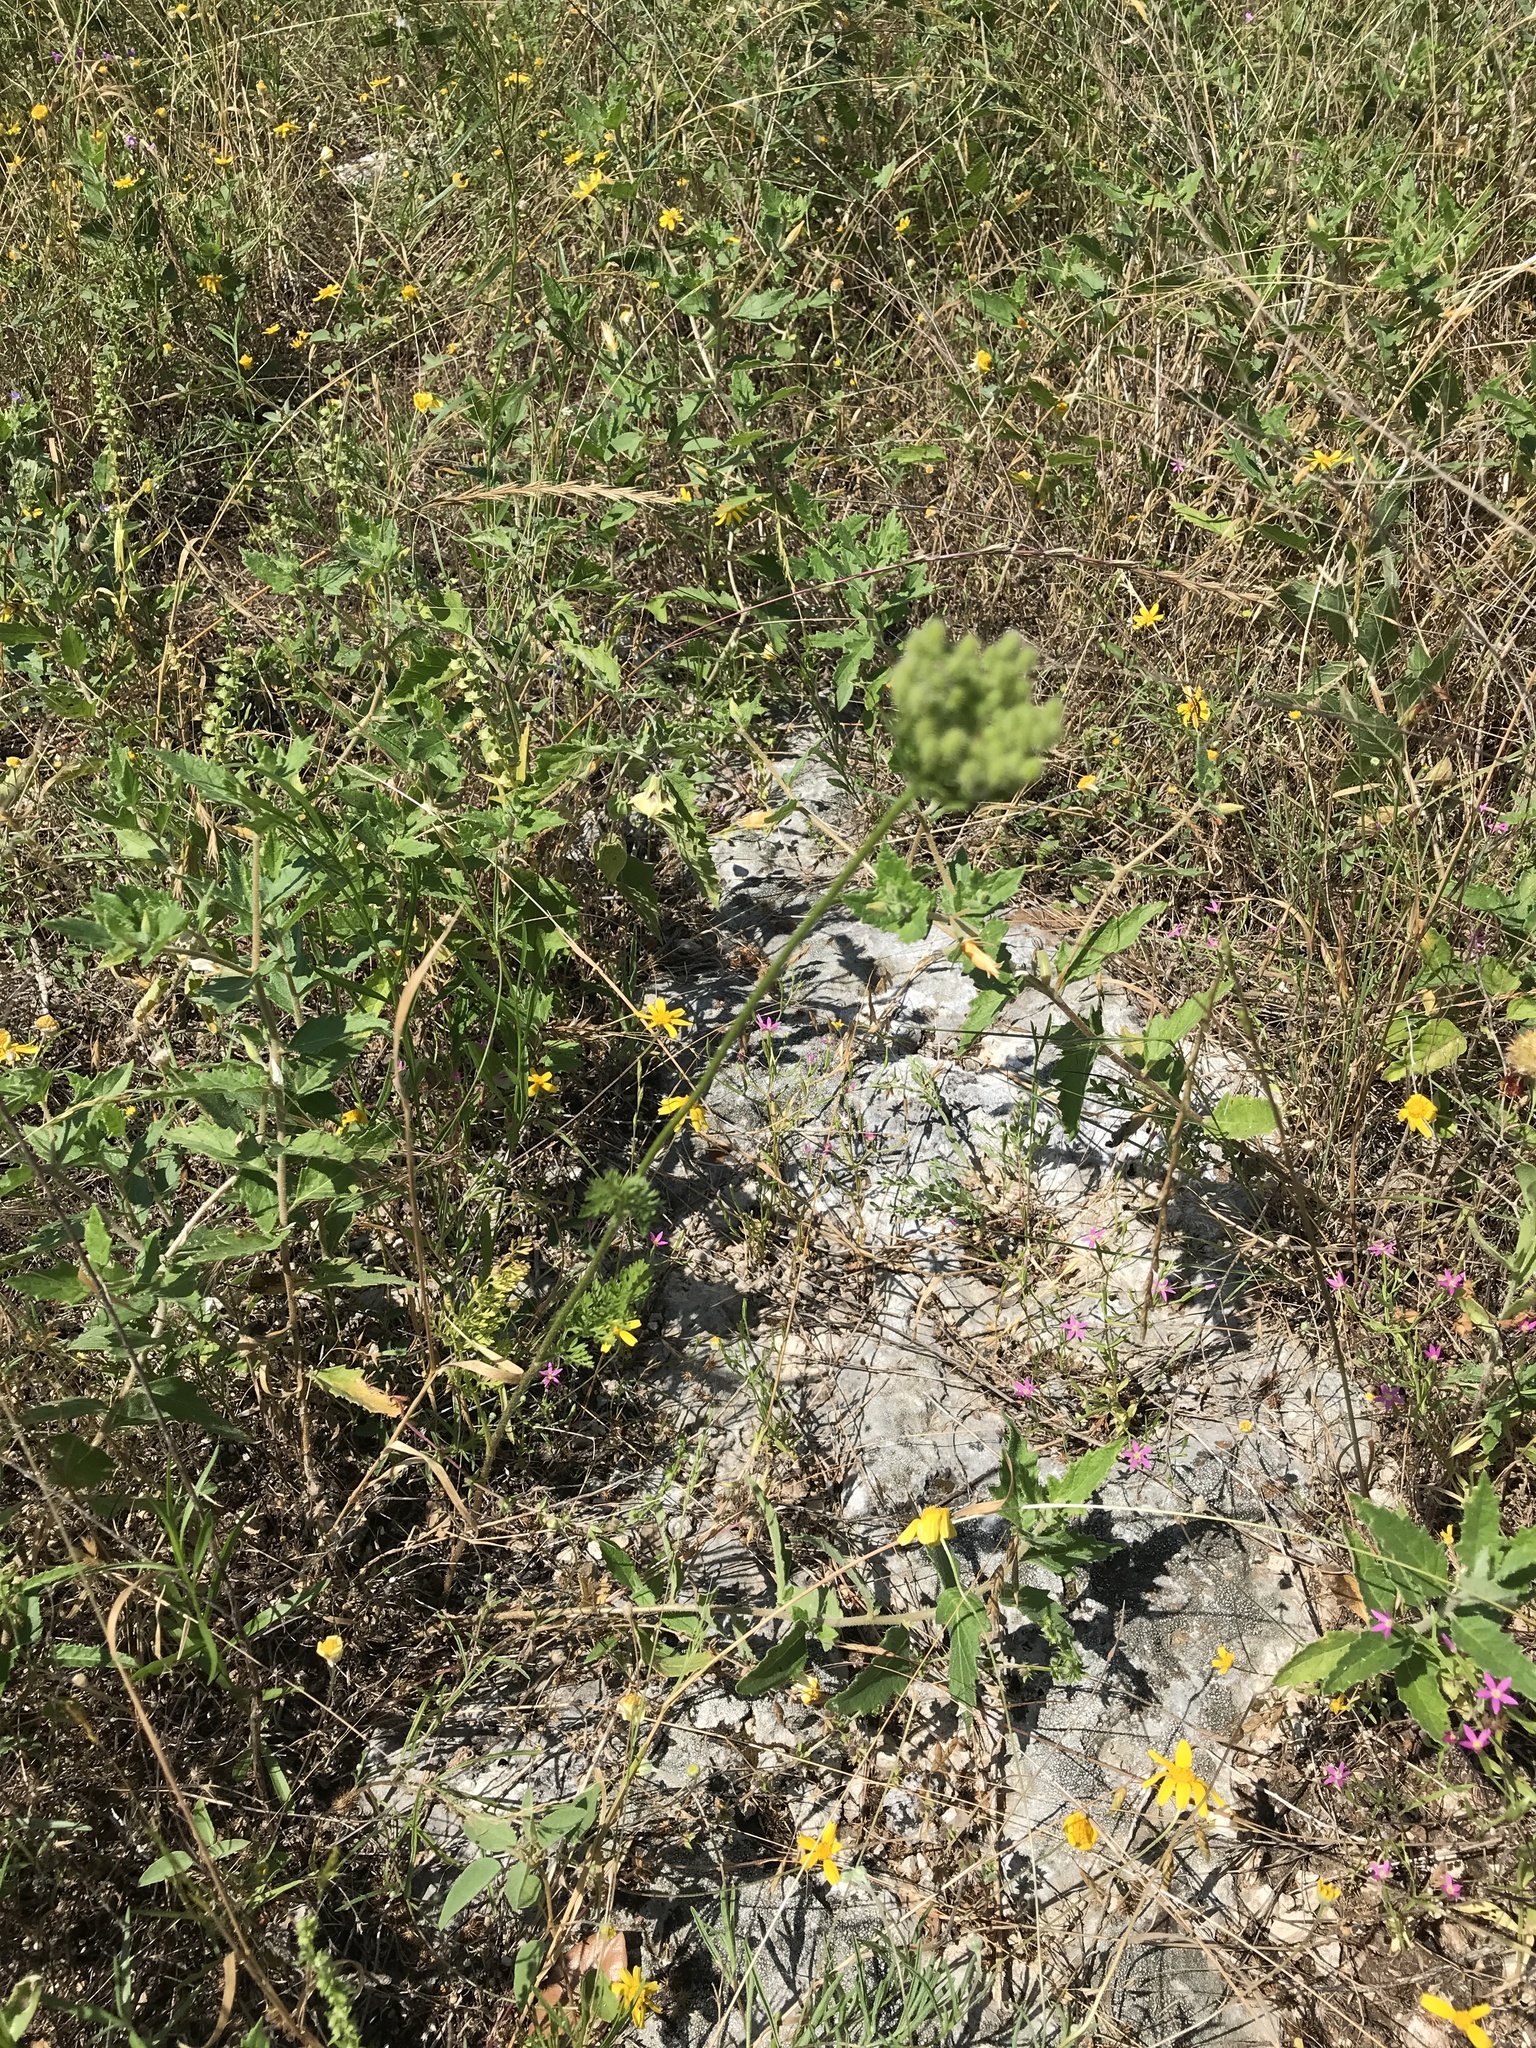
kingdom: Plantae
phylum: Tracheophyta
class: Magnoliopsida
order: Apiales
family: Apiaceae
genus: Daucus
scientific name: Daucus pusillus
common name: Southwest wild carrot
